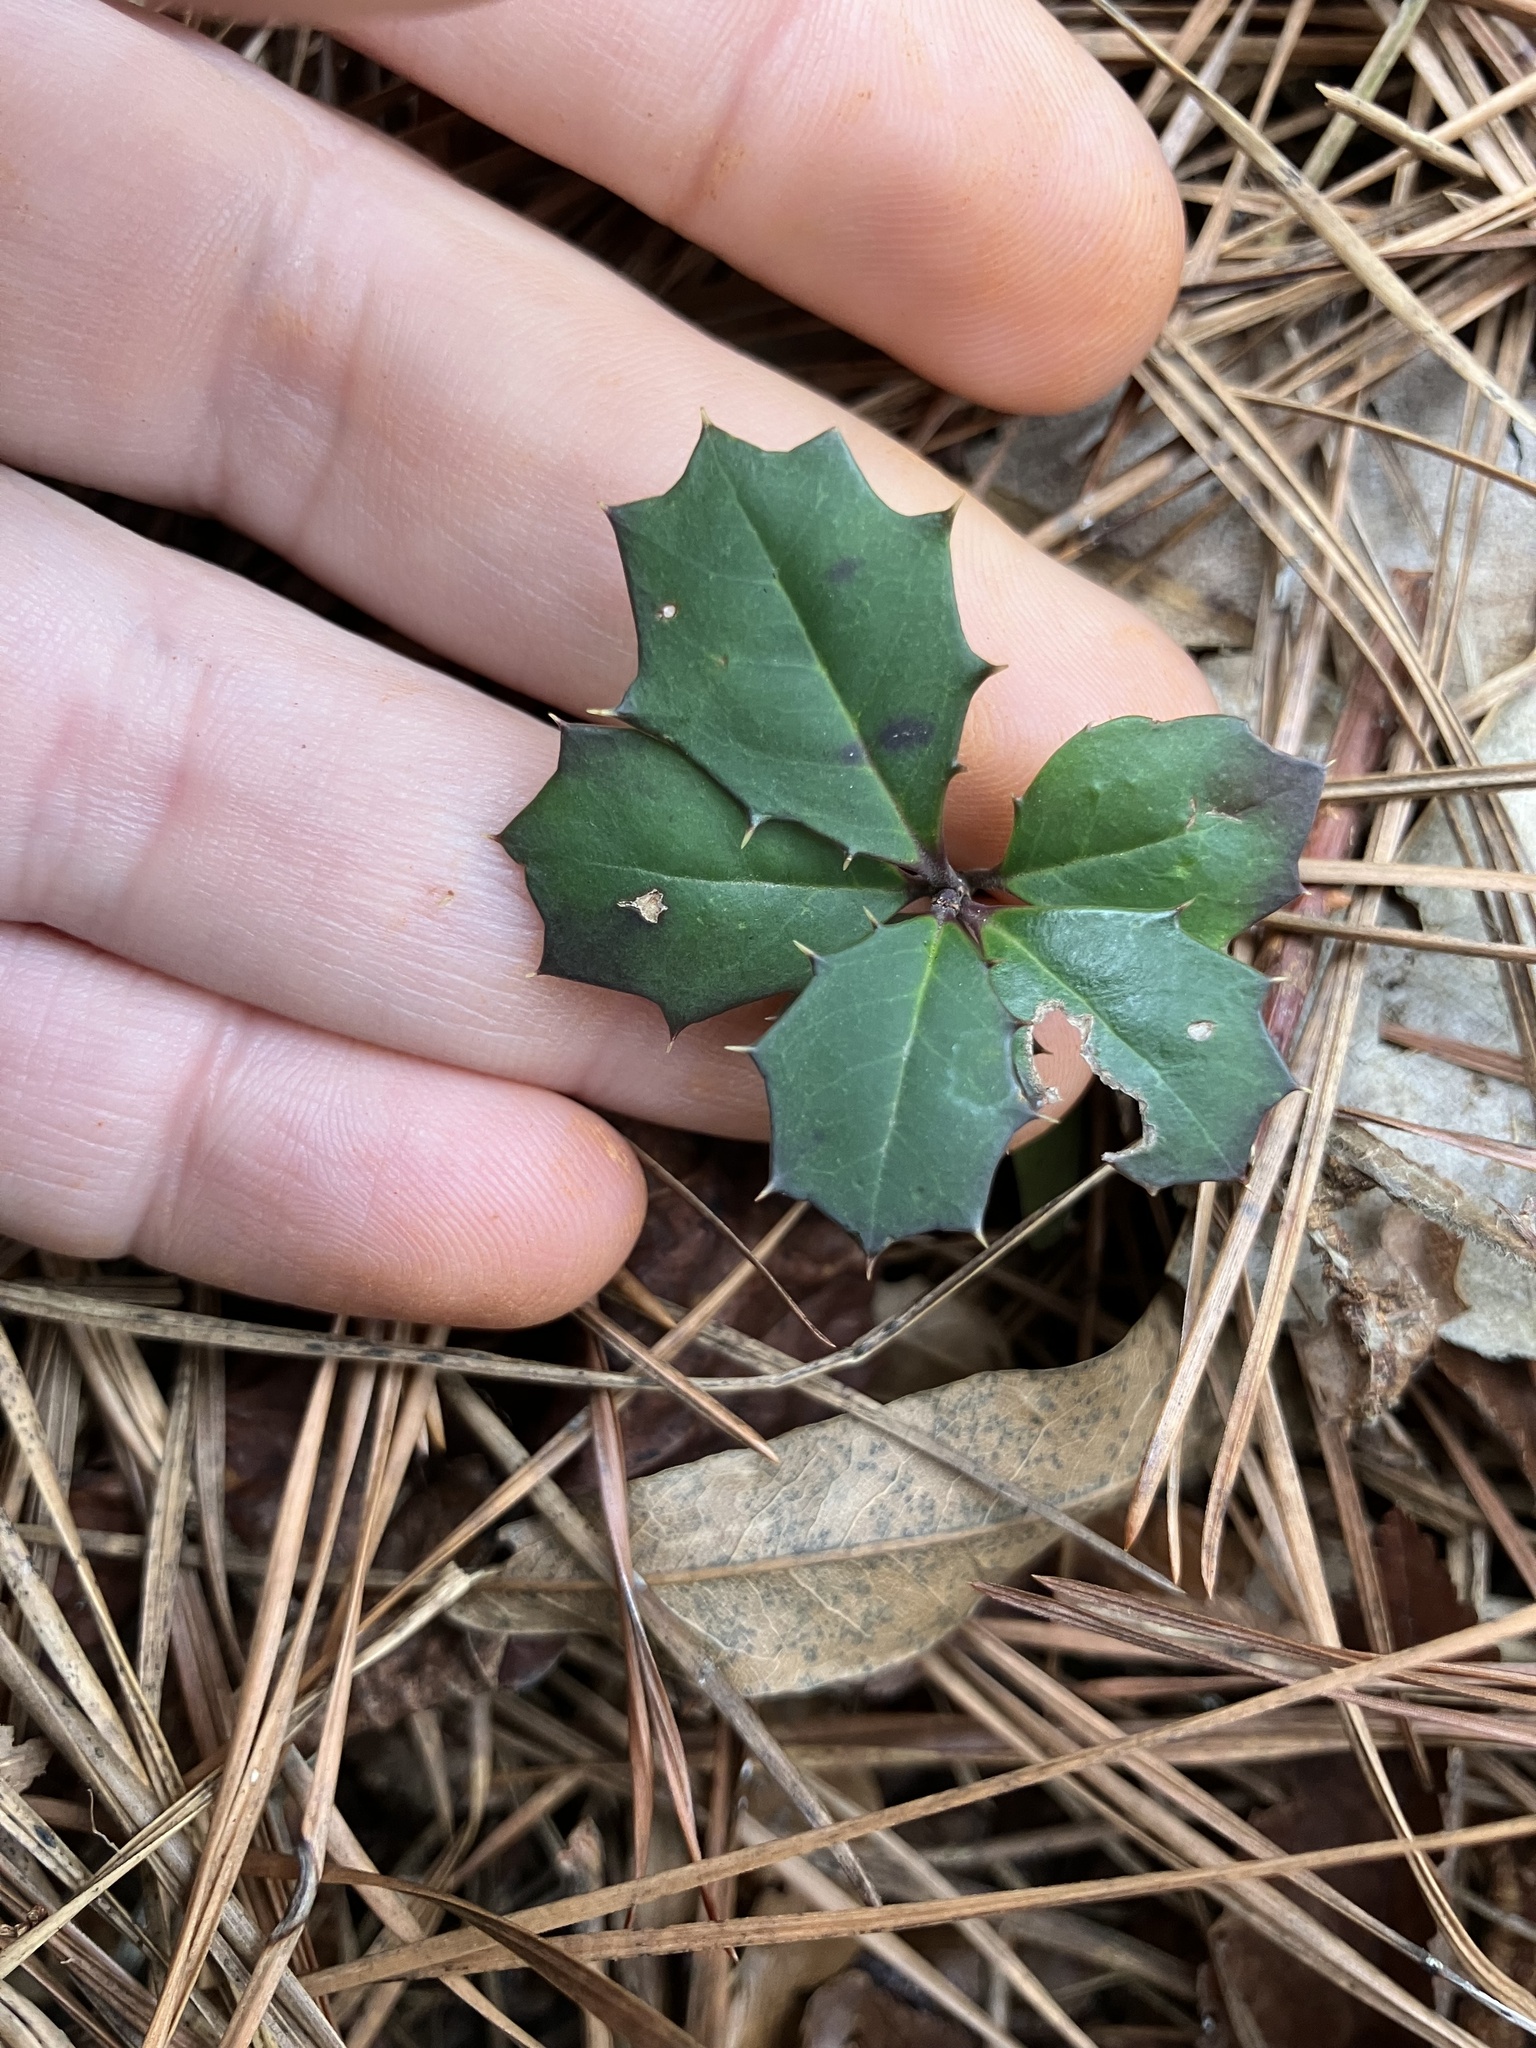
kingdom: Plantae
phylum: Tracheophyta
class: Magnoliopsida
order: Aquifoliales
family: Aquifoliaceae
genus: Ilex
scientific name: Ilex opaca
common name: American holly
